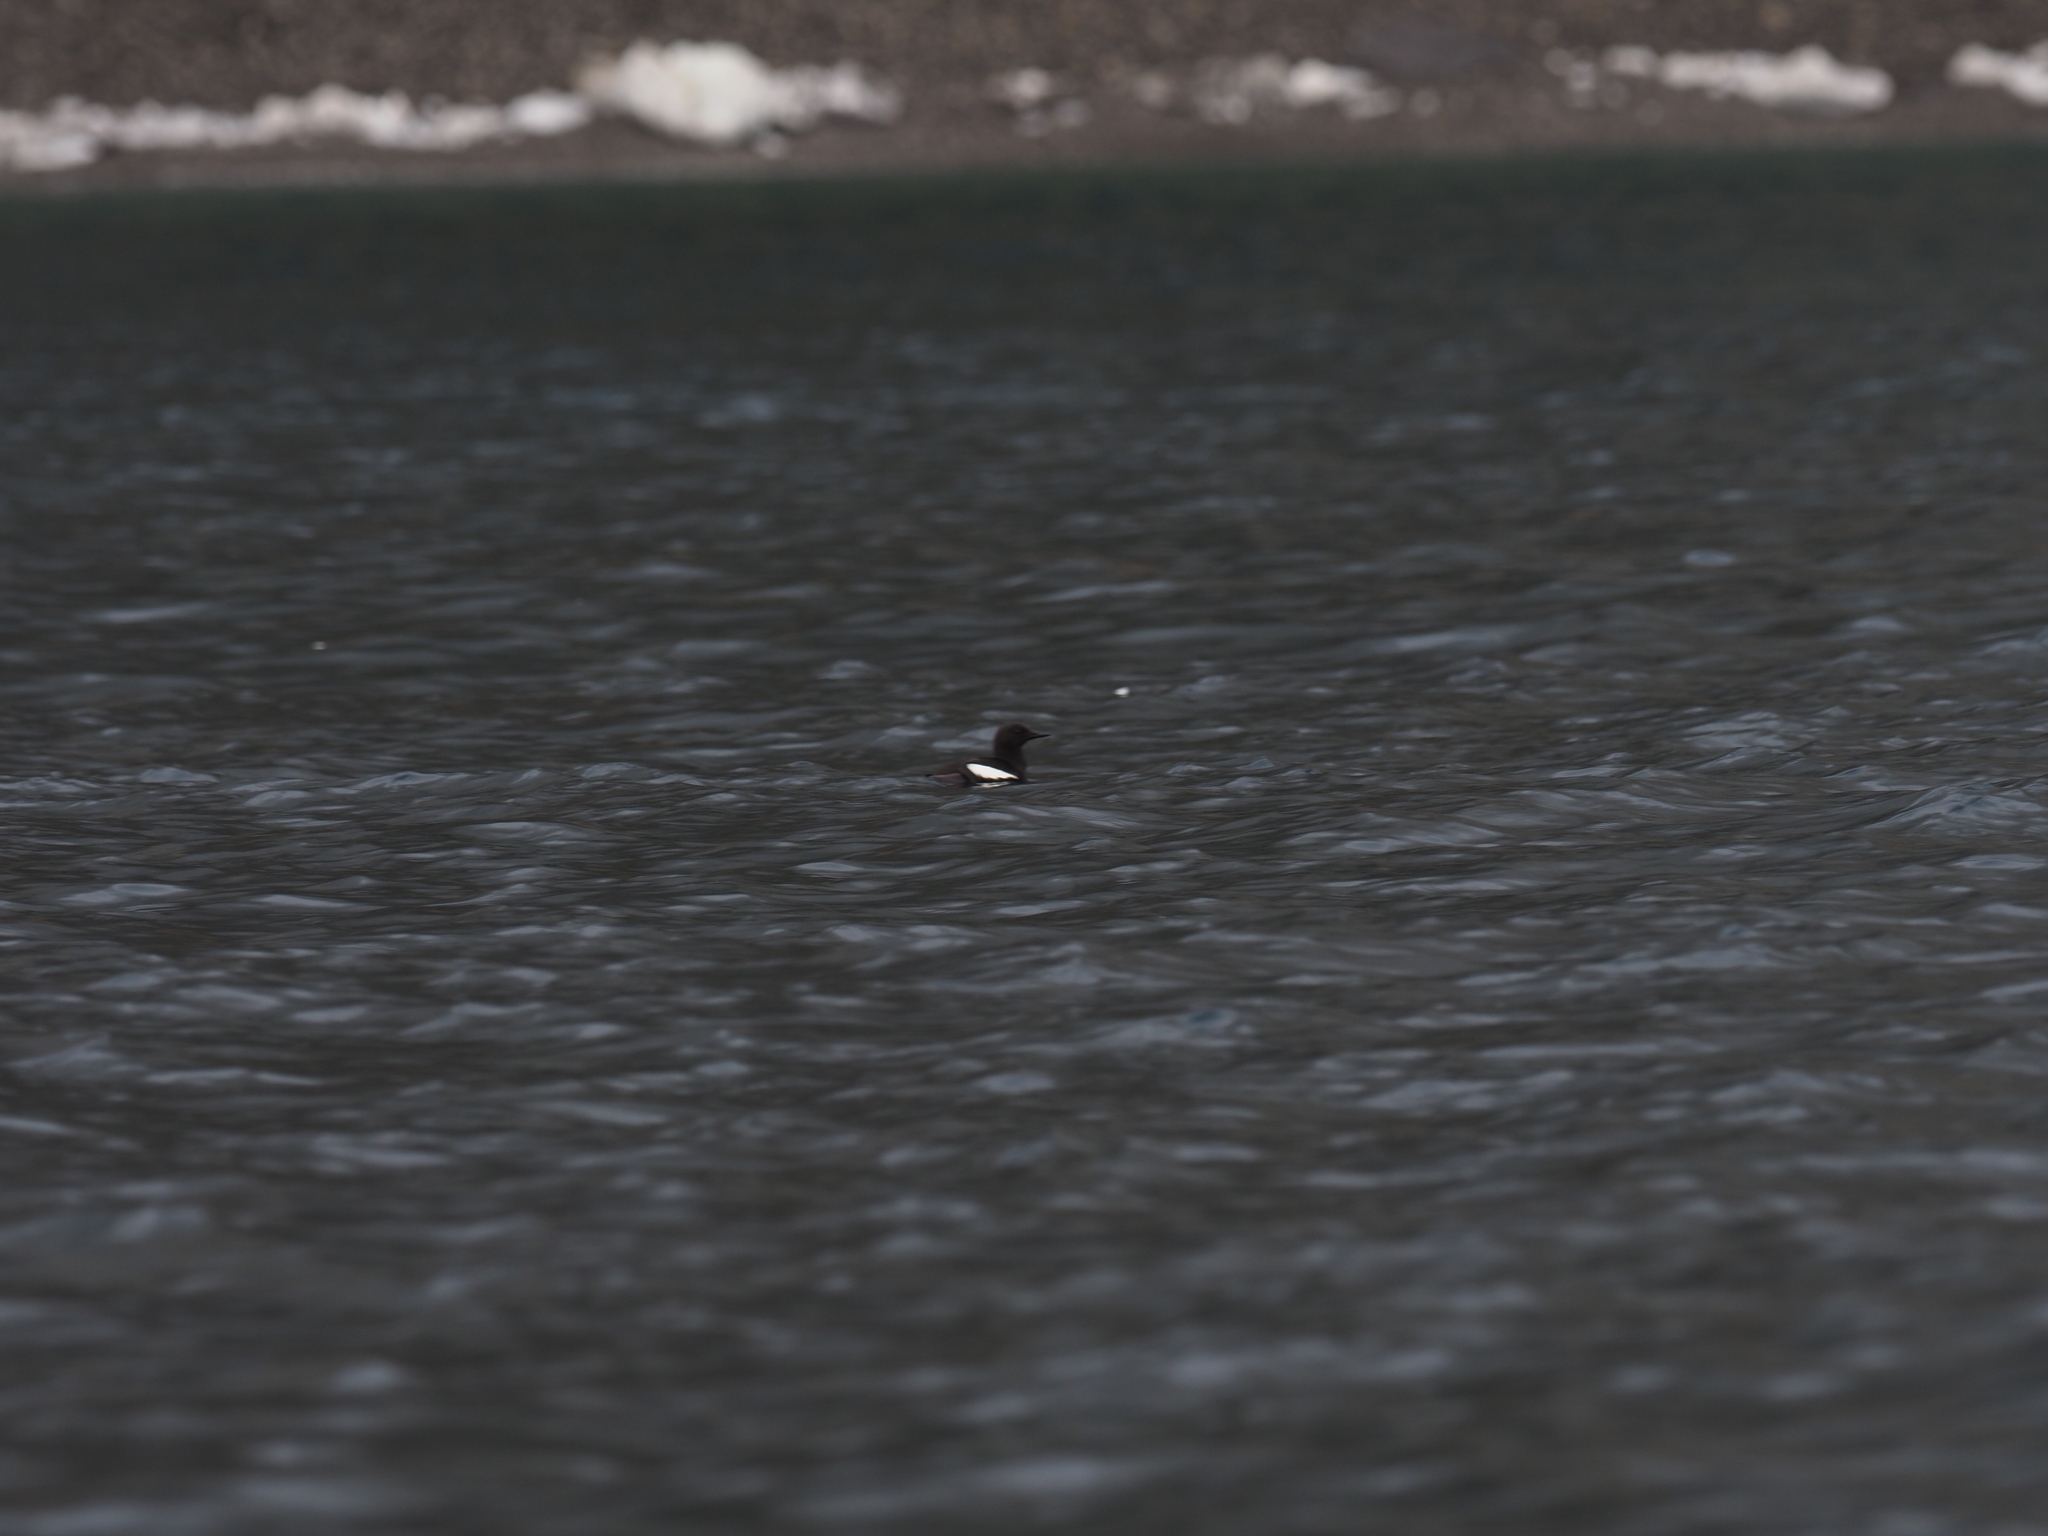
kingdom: Animalia
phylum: Chordata
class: Aves
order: Charadriiformes
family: Alcidae
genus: Cepphus
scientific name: Cepphus grylle
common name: Black guillemot
